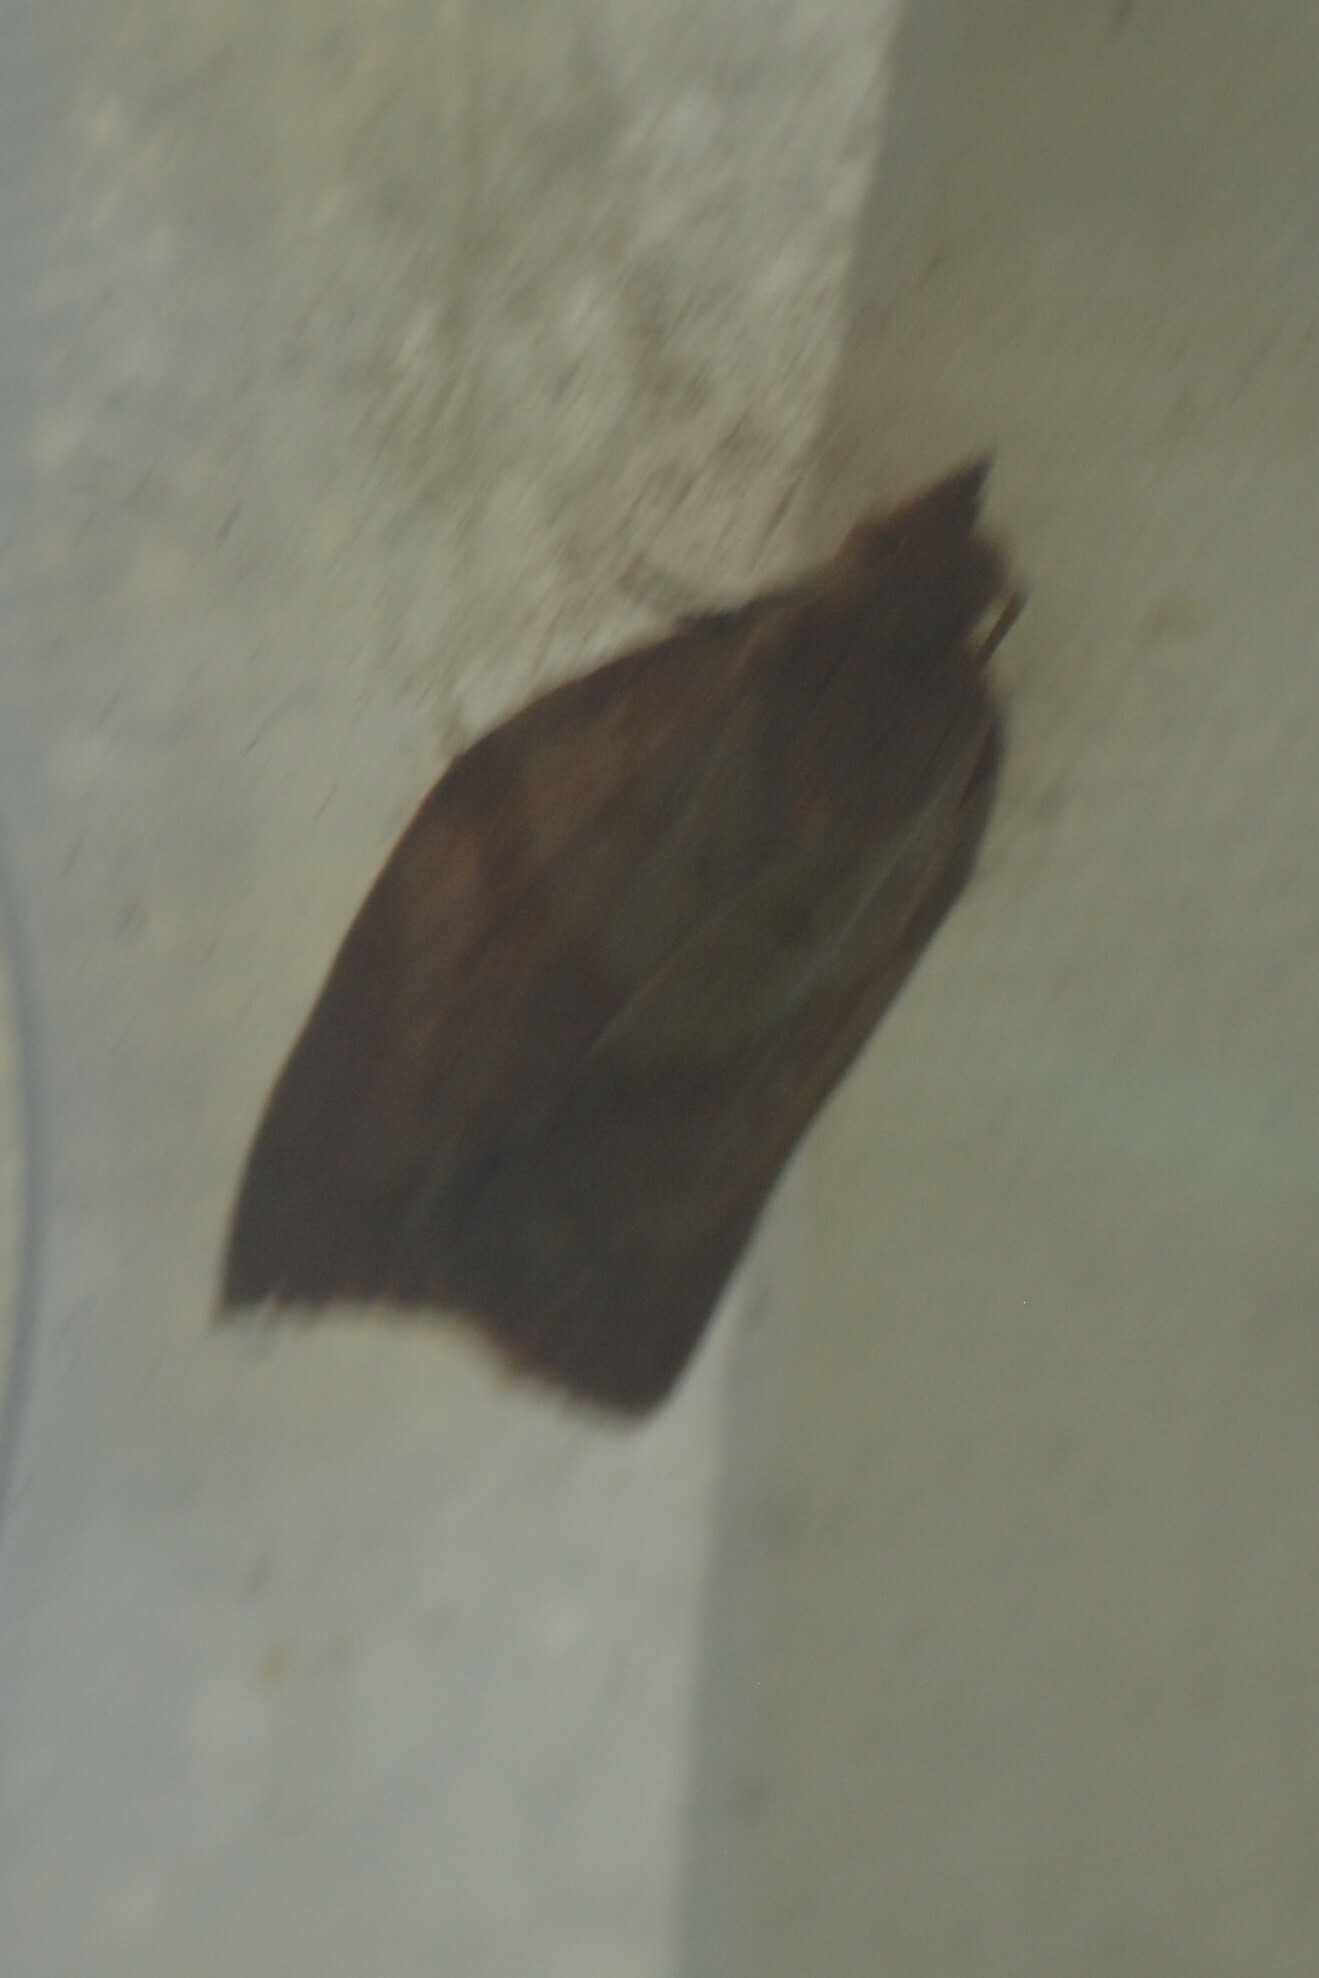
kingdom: Animalia
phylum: Arthropoda
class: Insecta
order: Lepidoptera
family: Tortricidae
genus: Epiphyas
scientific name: Epiphyas postvittana
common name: Light brown apple moth
